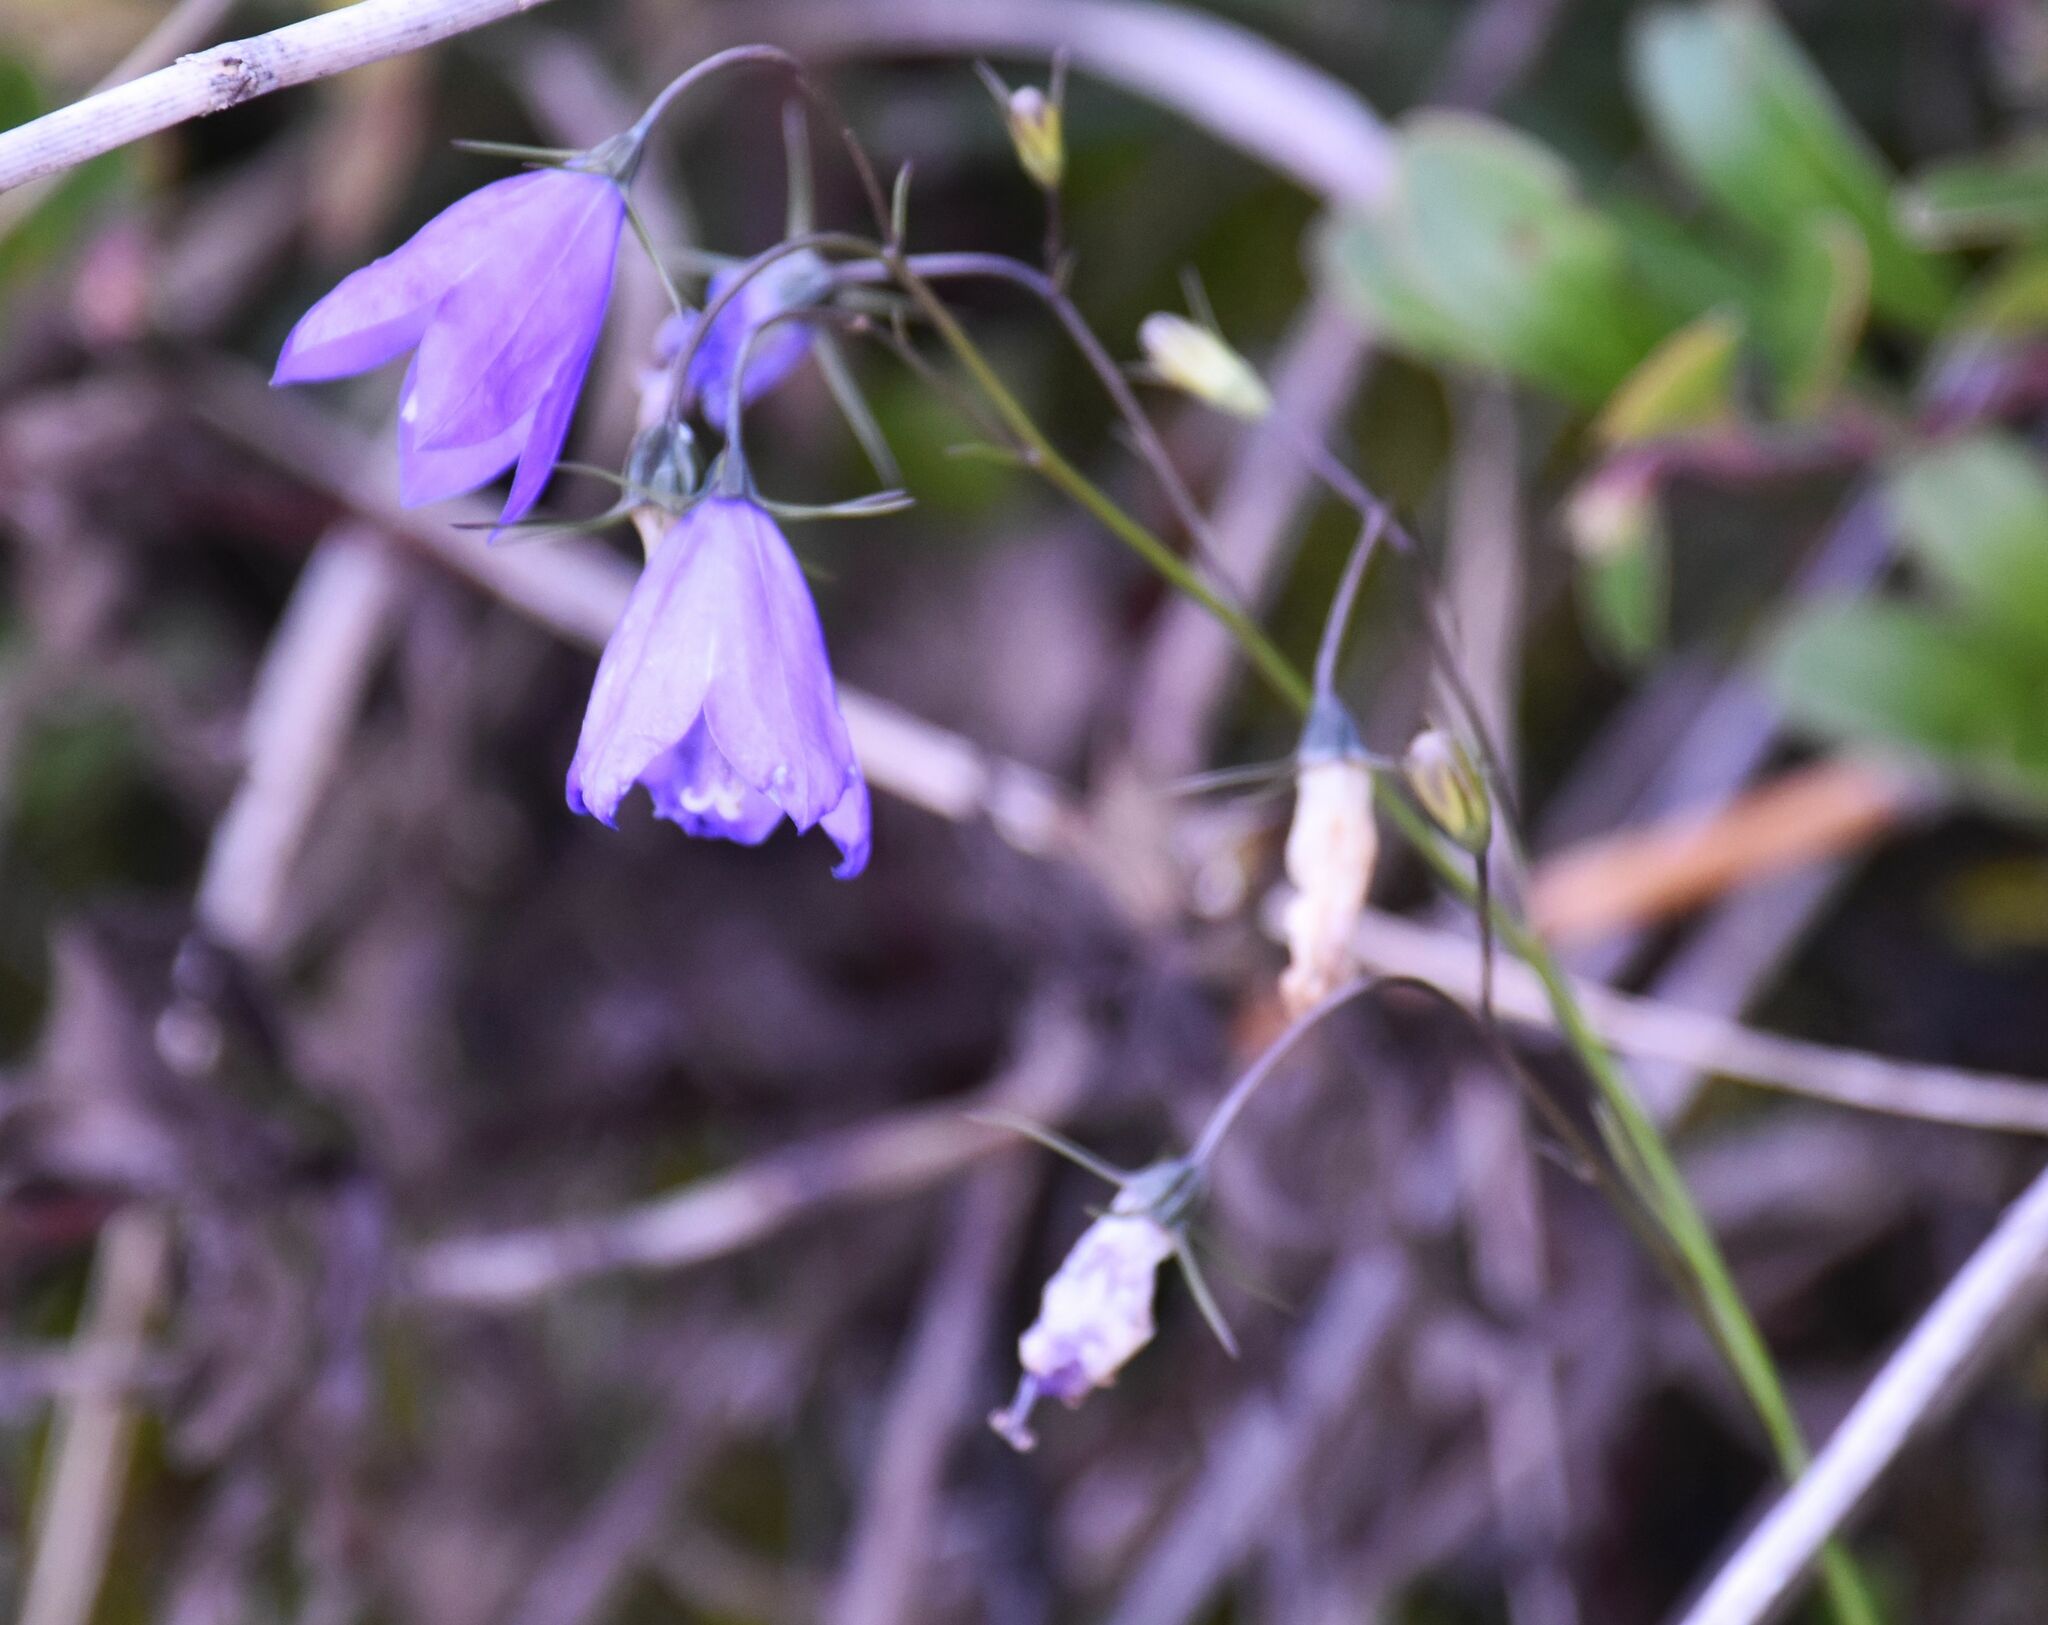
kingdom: Plantae
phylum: Tracheophyta
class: Magnoliopsida
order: Asterales
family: Campanulaceae
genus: Campanula
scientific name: Campanula alaskana
